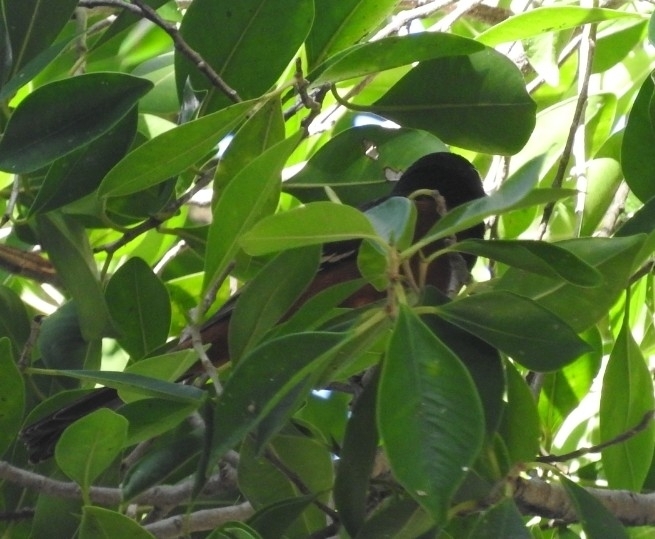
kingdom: Animalia
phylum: Chordata
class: Aves
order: Passeriformes
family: Icteridae
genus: Icterus
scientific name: Icterus spurius
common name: Orchard oriole
